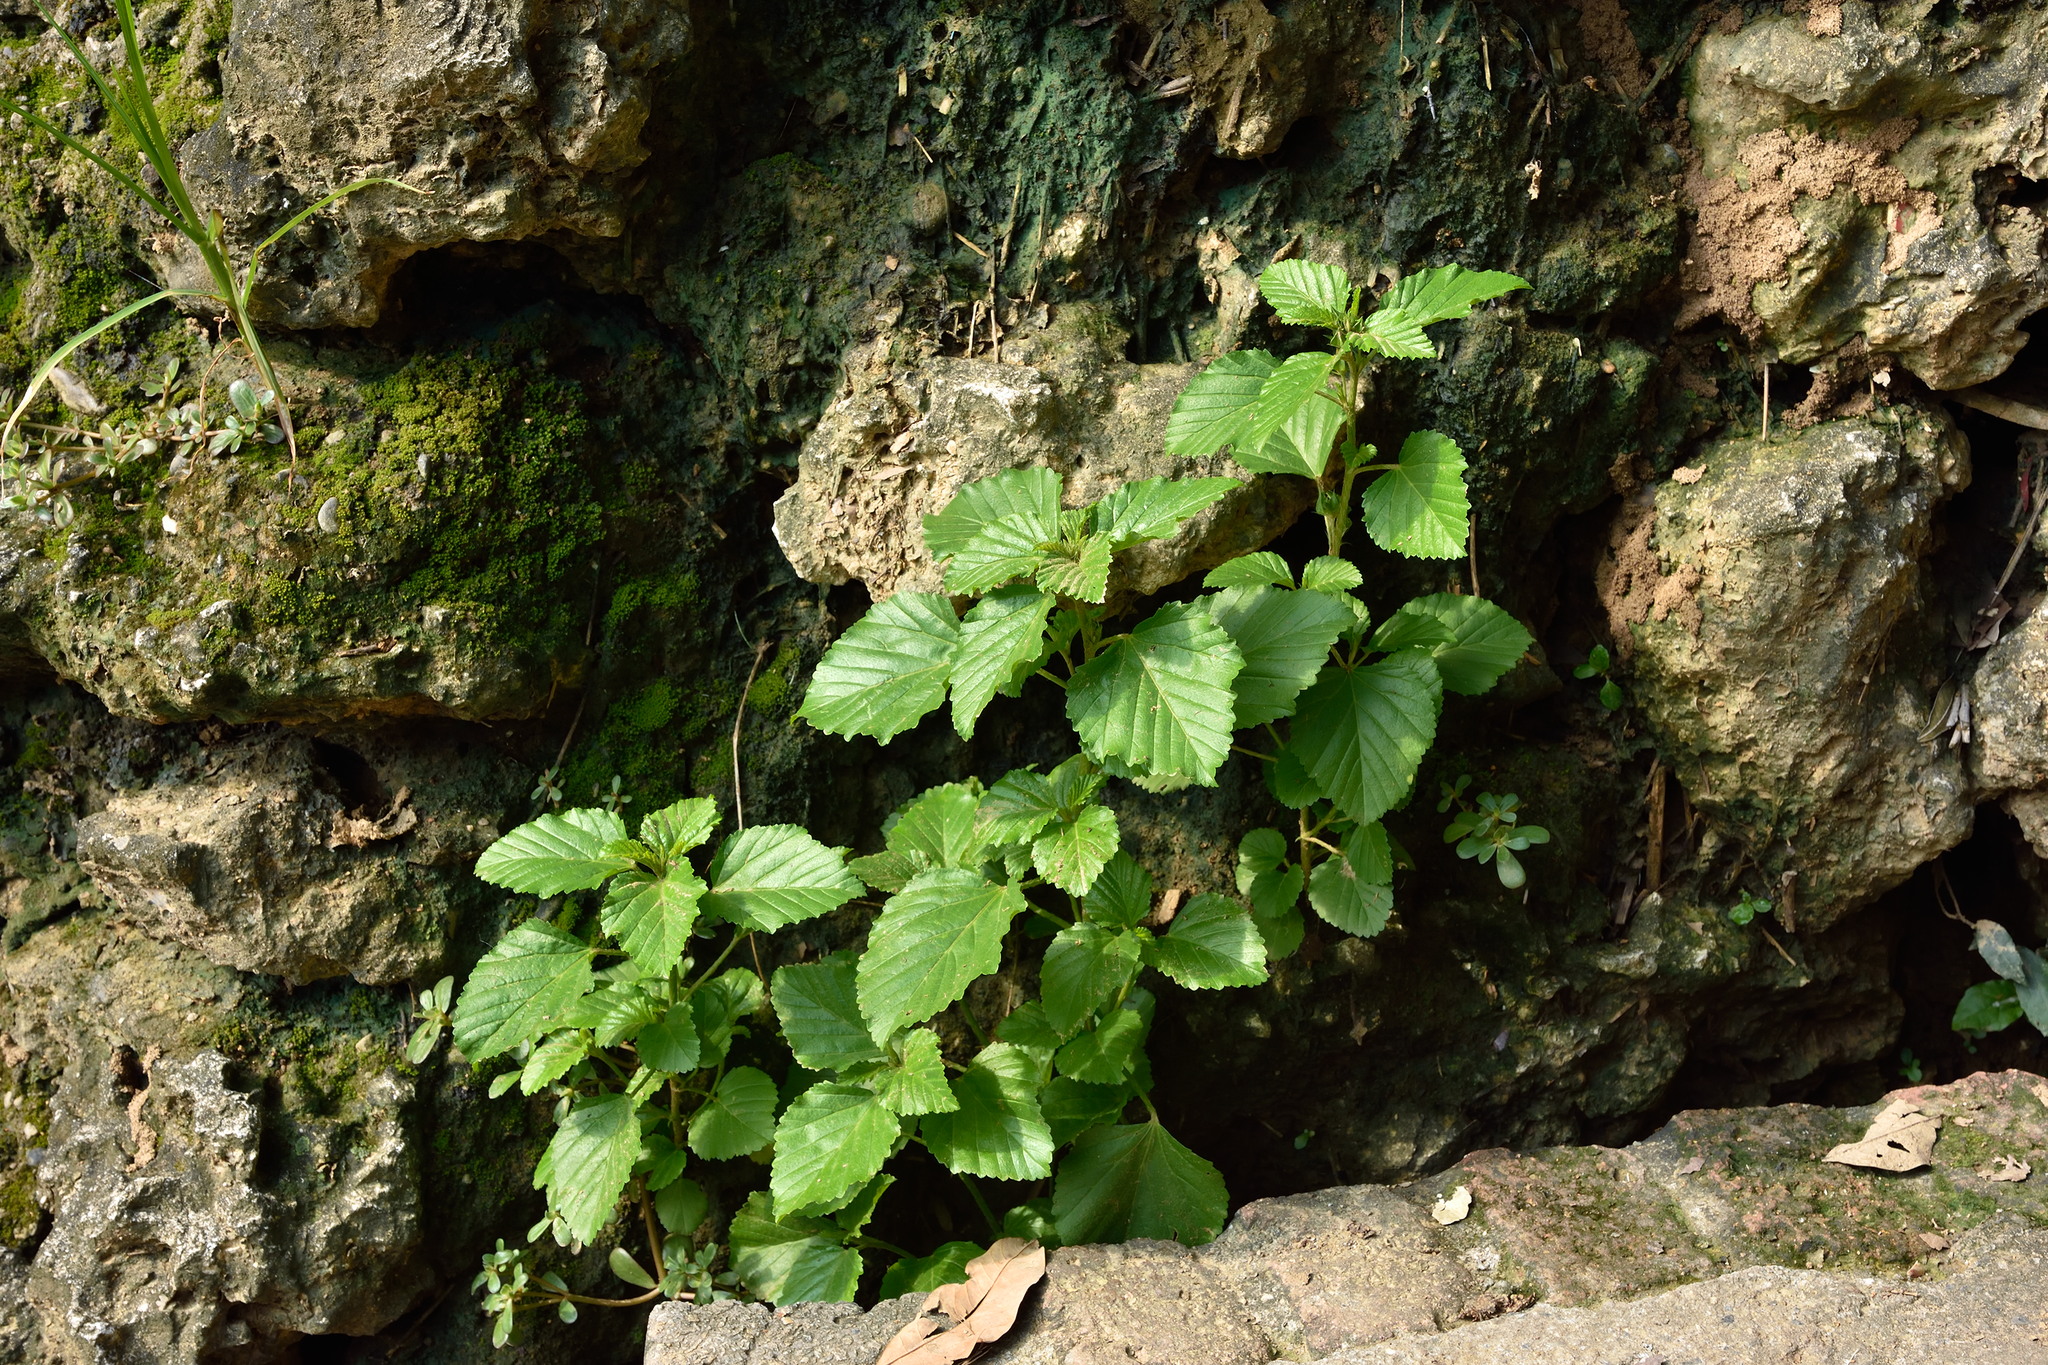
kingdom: Plantae
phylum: Tracheophyta
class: Magnoliopsida
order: Malvales
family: Malvaceae
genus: Malvastrum
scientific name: Malvastrum coromandelianum
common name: Threelobe false mallow
